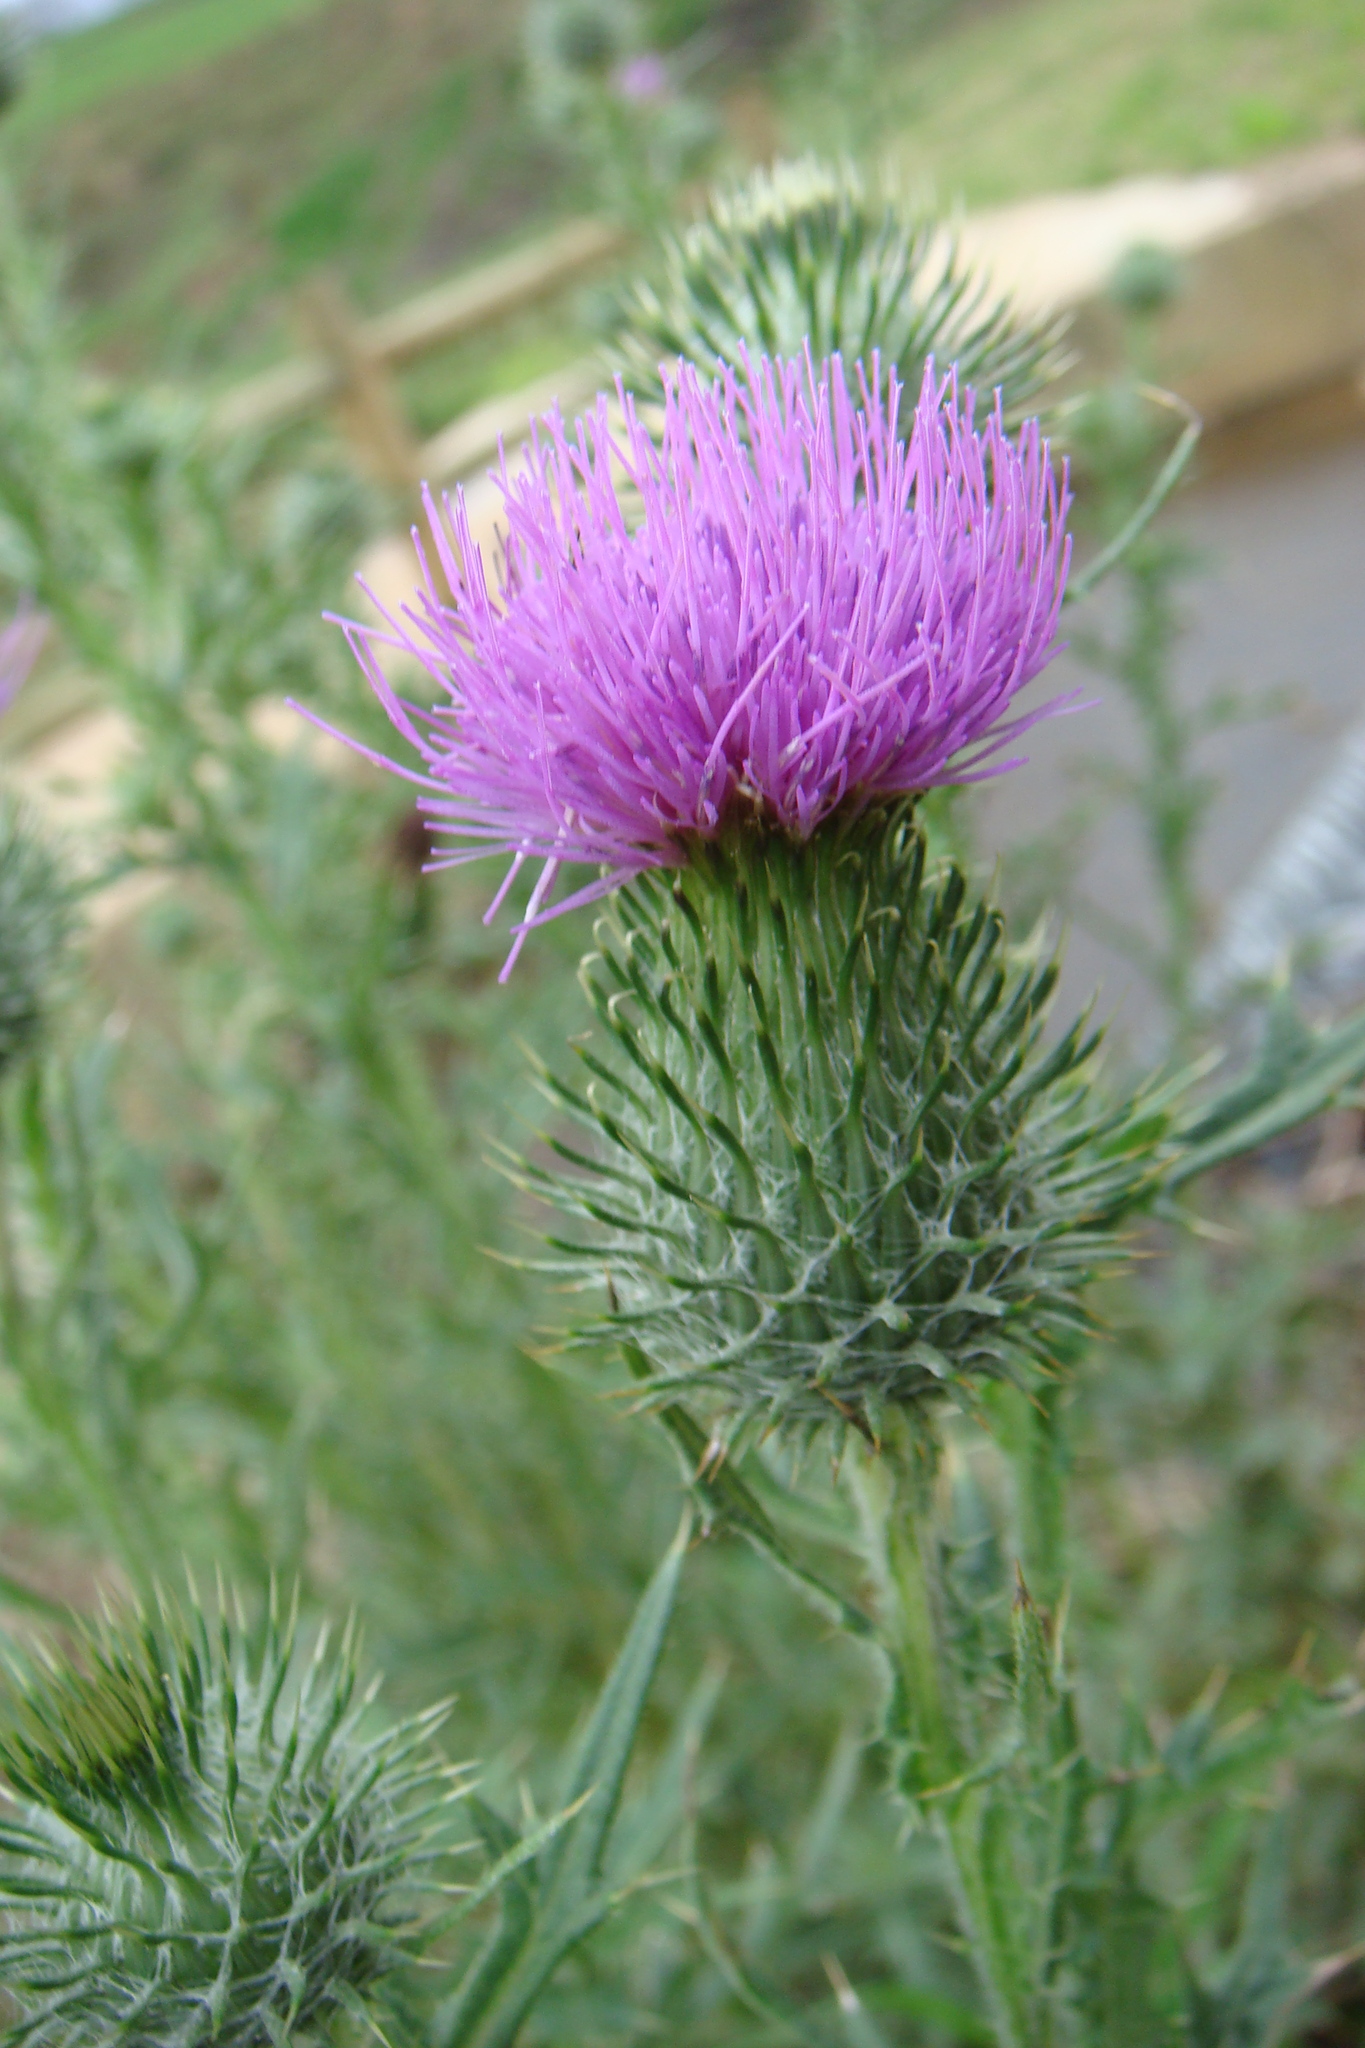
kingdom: Plantae
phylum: Tracheophyta
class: Magnoliopsida
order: Asterales
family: Asteraceae
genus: Cirsium
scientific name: Cirsium vulgare
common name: Bull thistle
